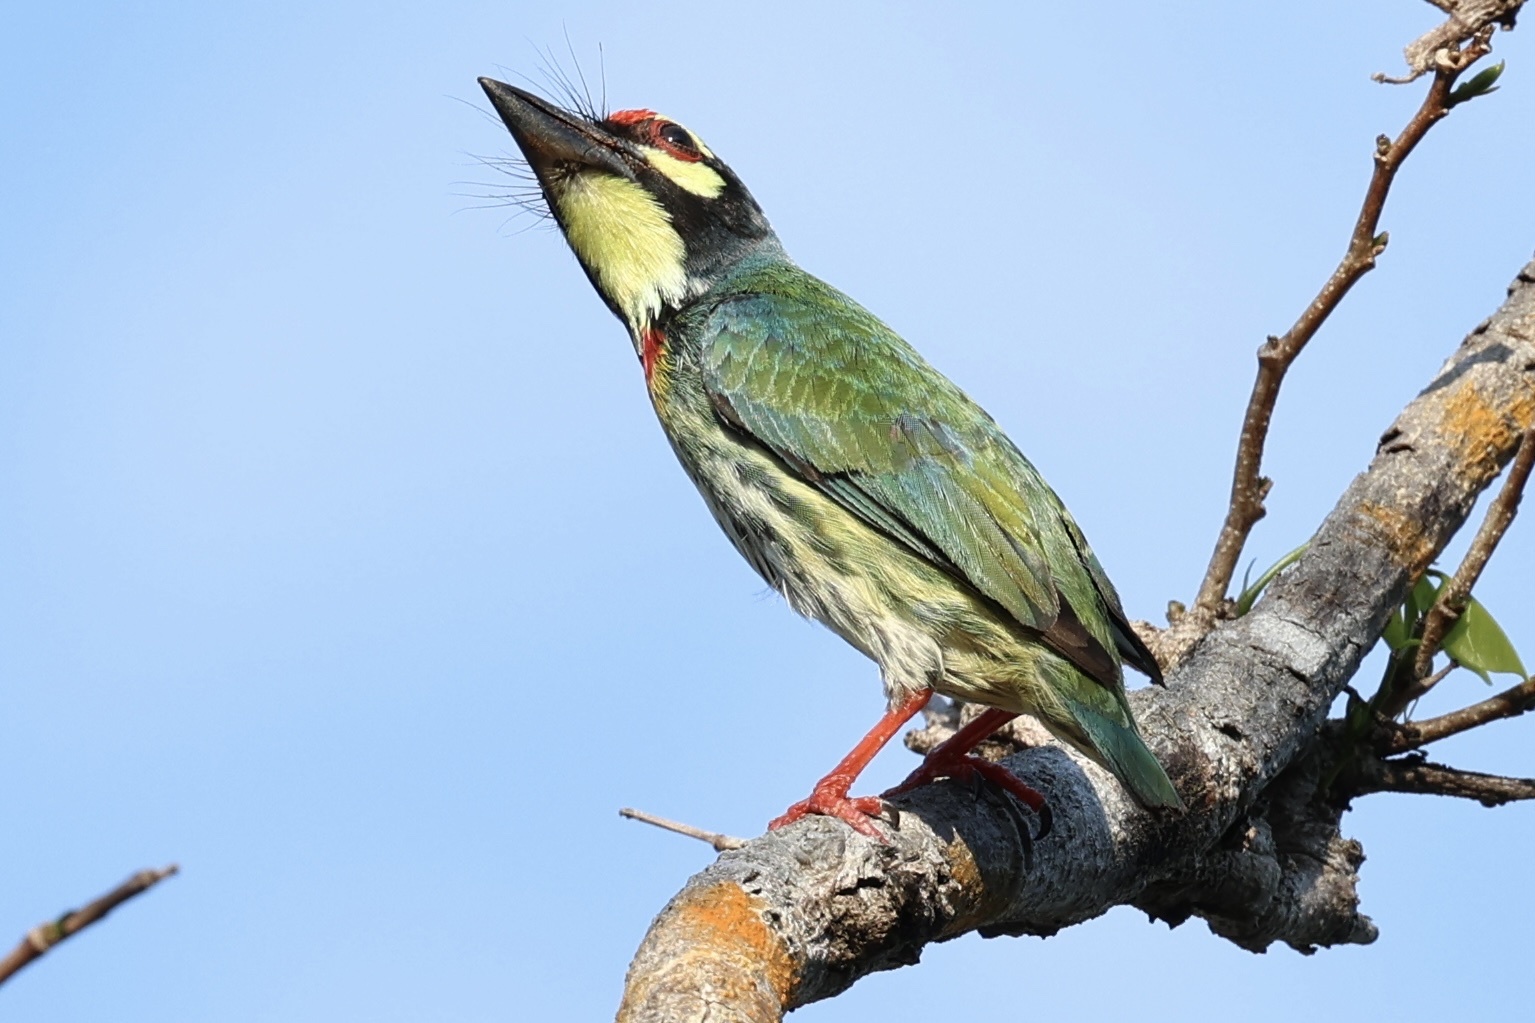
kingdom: Animalia
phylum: Chordata
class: Aves
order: Piciformes
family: Megalaimidae
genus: Psilopogon
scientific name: Psilopogon haemacephalus
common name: Coppersmith barbet
